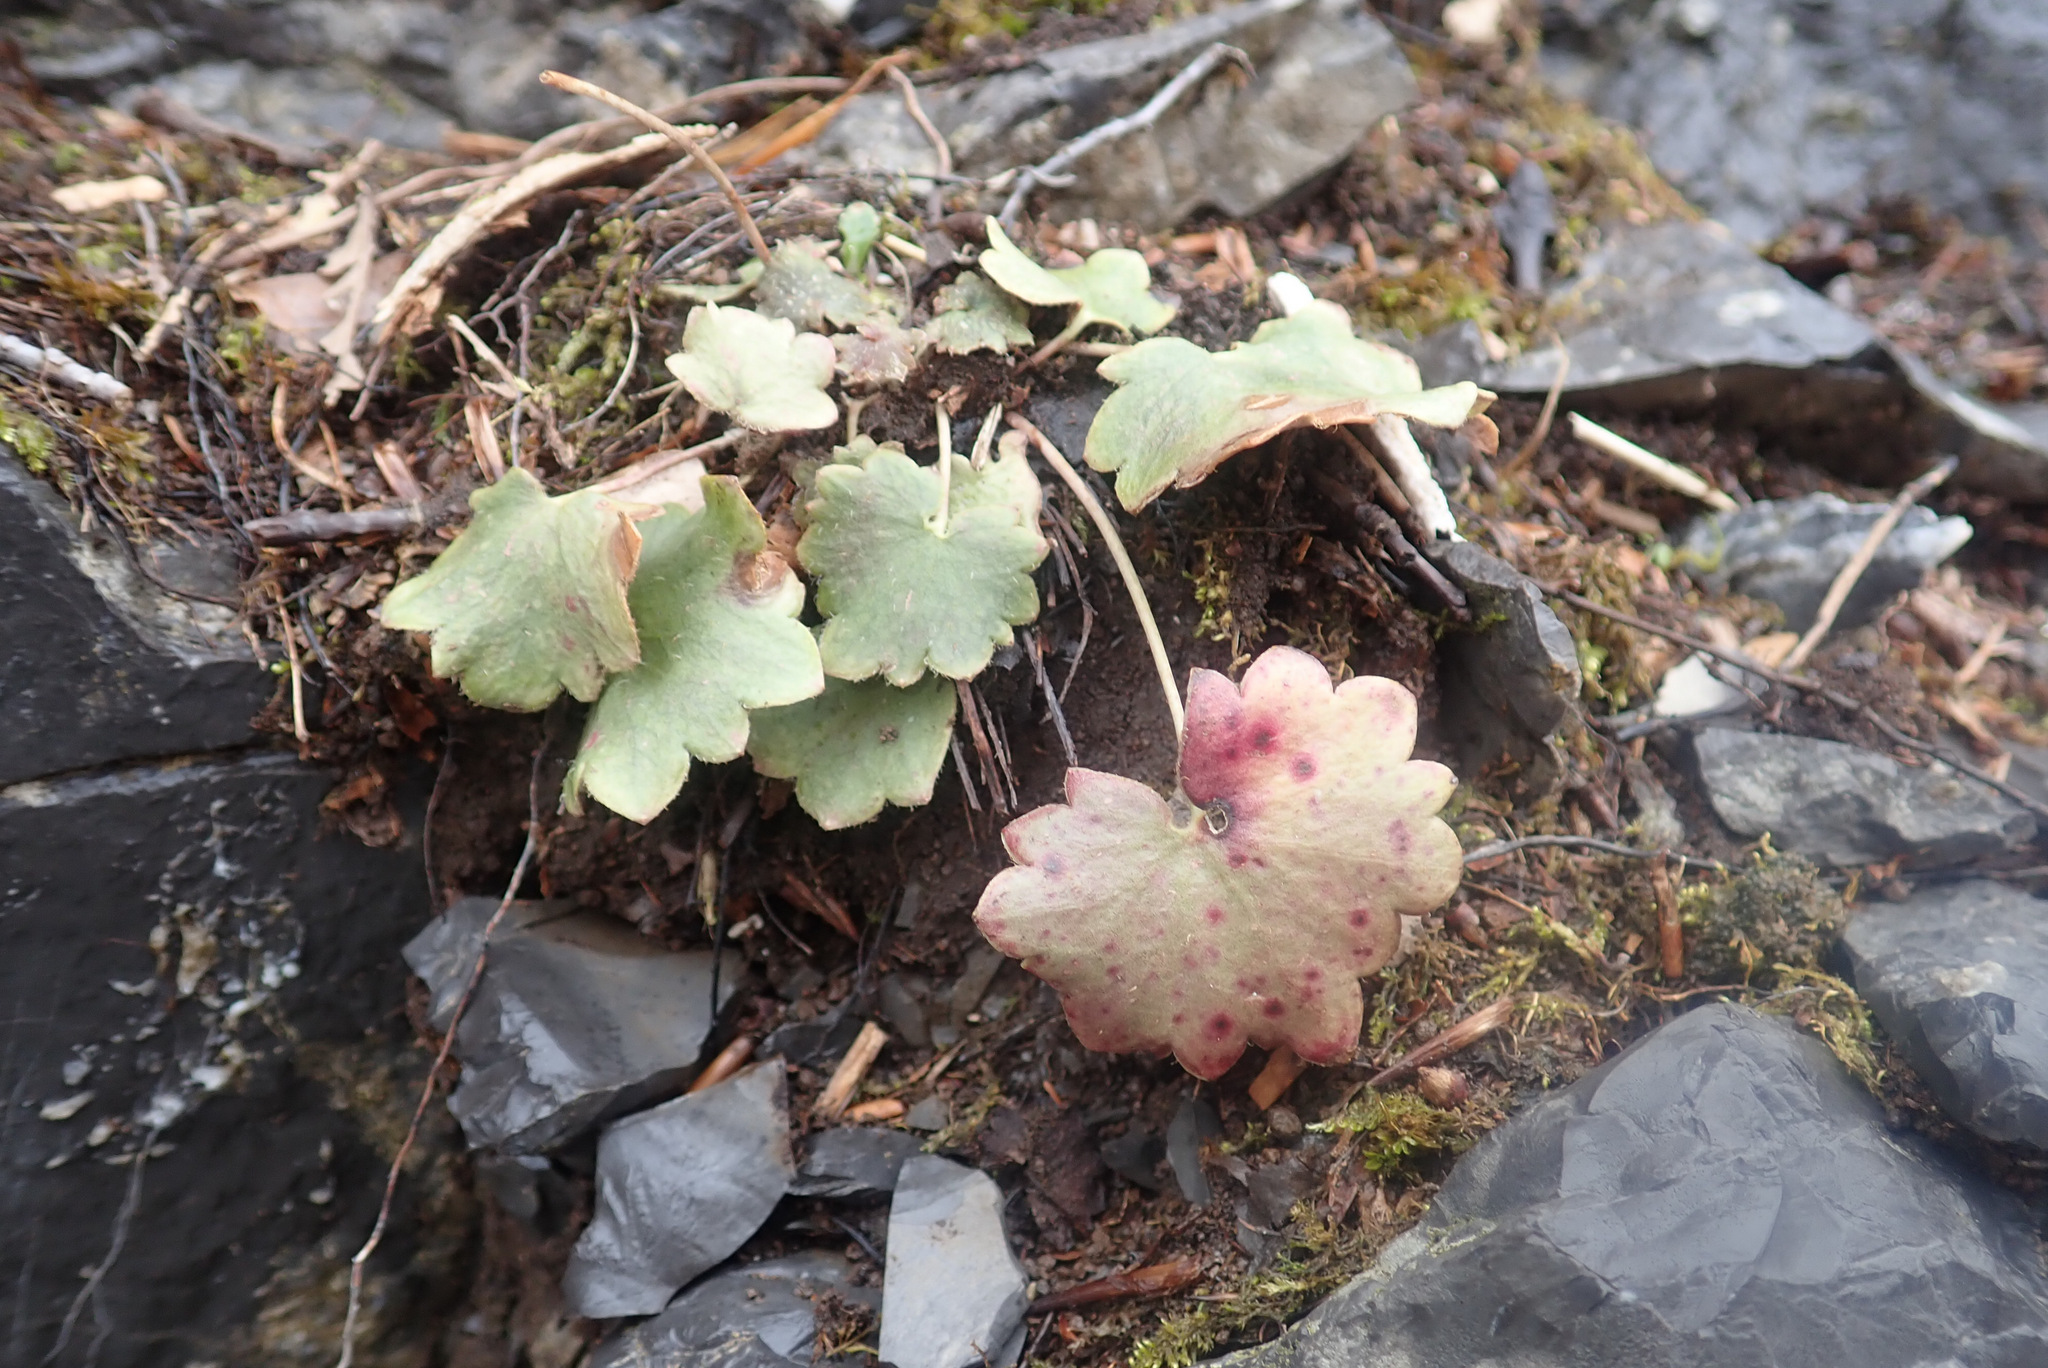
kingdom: Plantae
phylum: Tracheophyta
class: Magnoliopsida
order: Saxifragales
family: Saxifragaceae
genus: Saxifraga
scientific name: Saxifraga rotundifolia
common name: Round-leaved saxifrage
